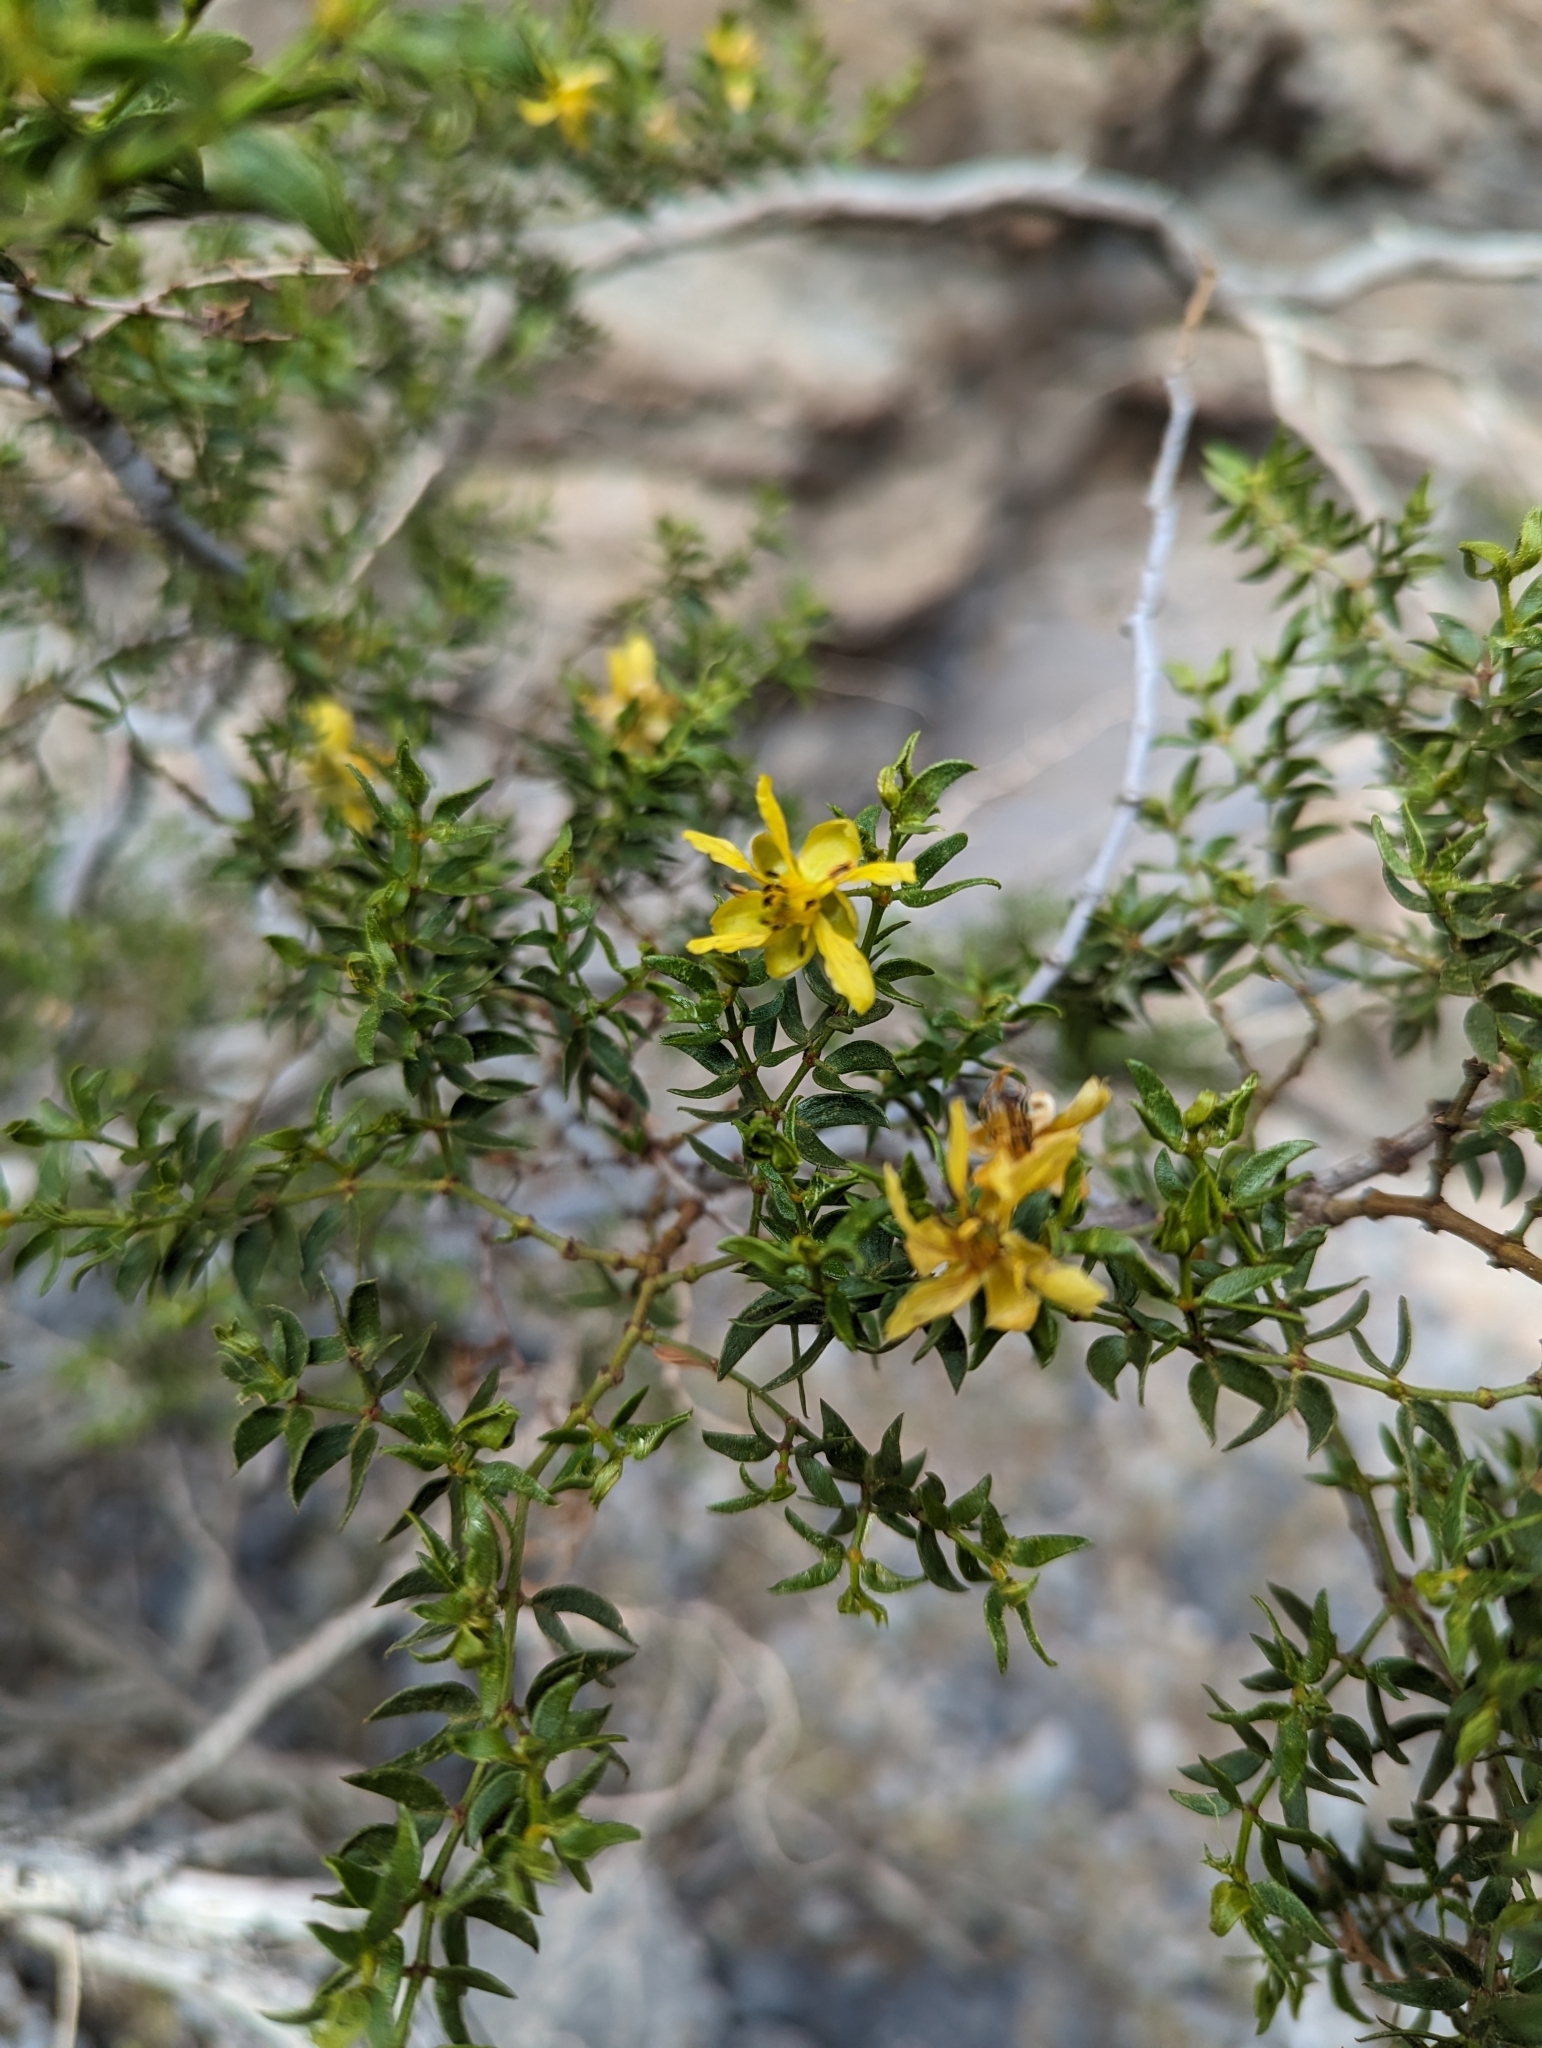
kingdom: Animalia
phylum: Arthropoda
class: Insecta
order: Diptera
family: Cecidomyiidae
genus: Asphondylia
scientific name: Asphondylia auripila
